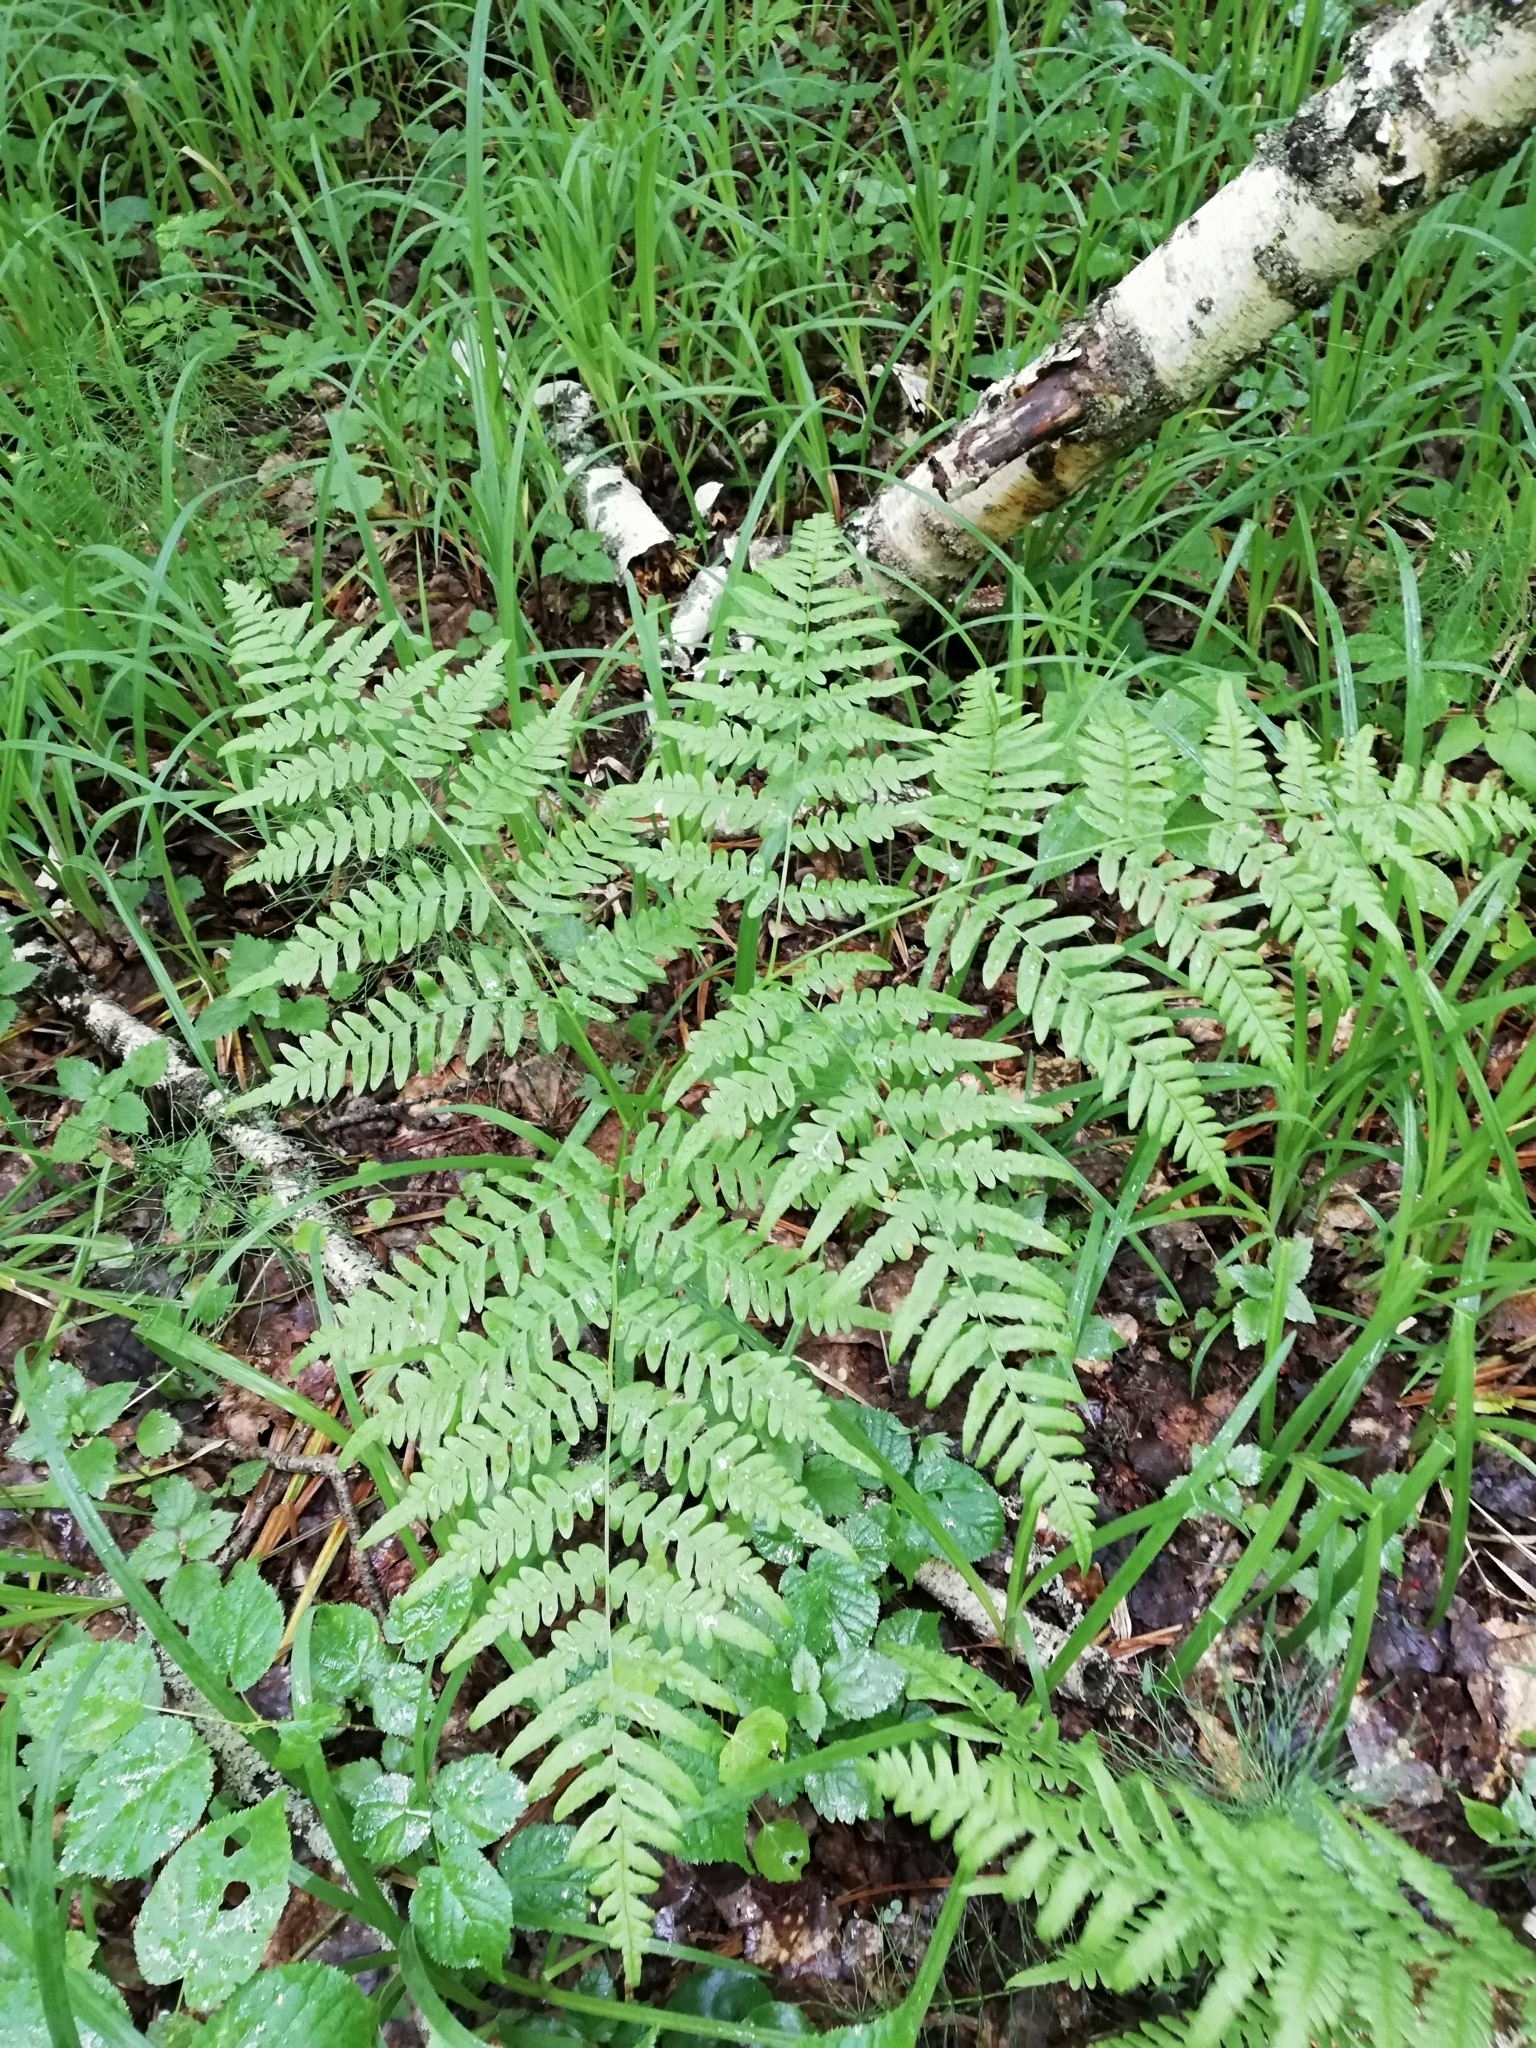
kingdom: Plantae
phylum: Tracheophyta
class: Polypodiopsida
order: Polypodiales
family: Dennstaedtiaceae
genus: Pteridium
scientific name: Pteridium aquilinum
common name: Bracken
